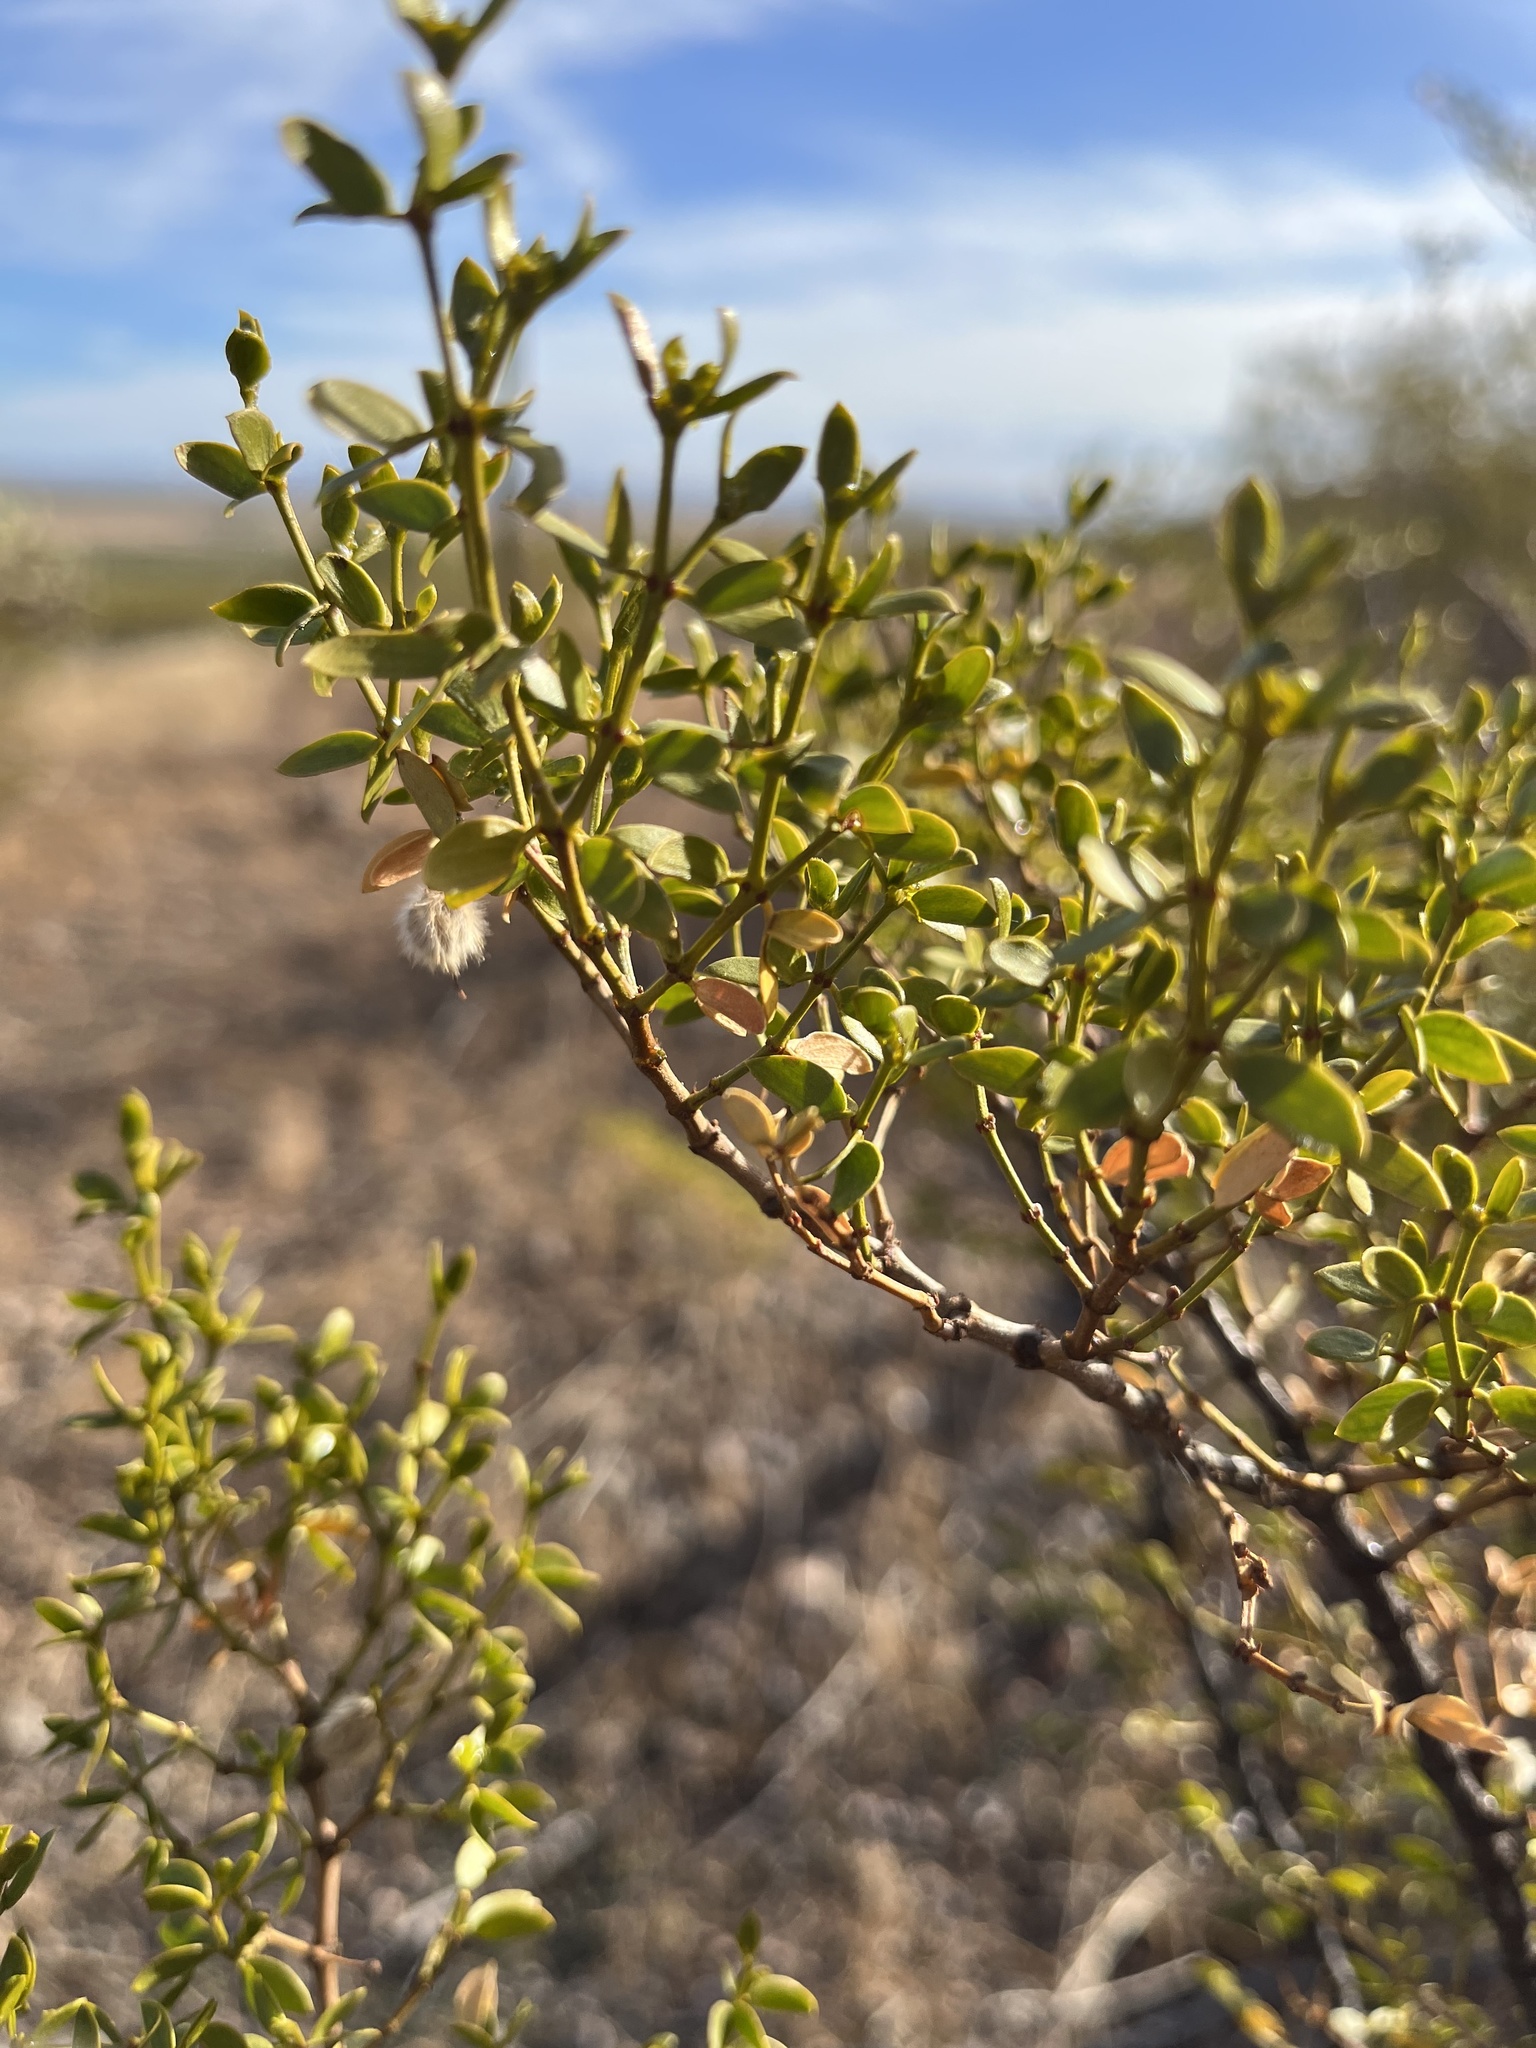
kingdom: Plantae
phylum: Tracheophyta
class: Magnoliopsida
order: Zygophyllales
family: Zygophyllaceae
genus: Larrea
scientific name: Larrea tridentata
